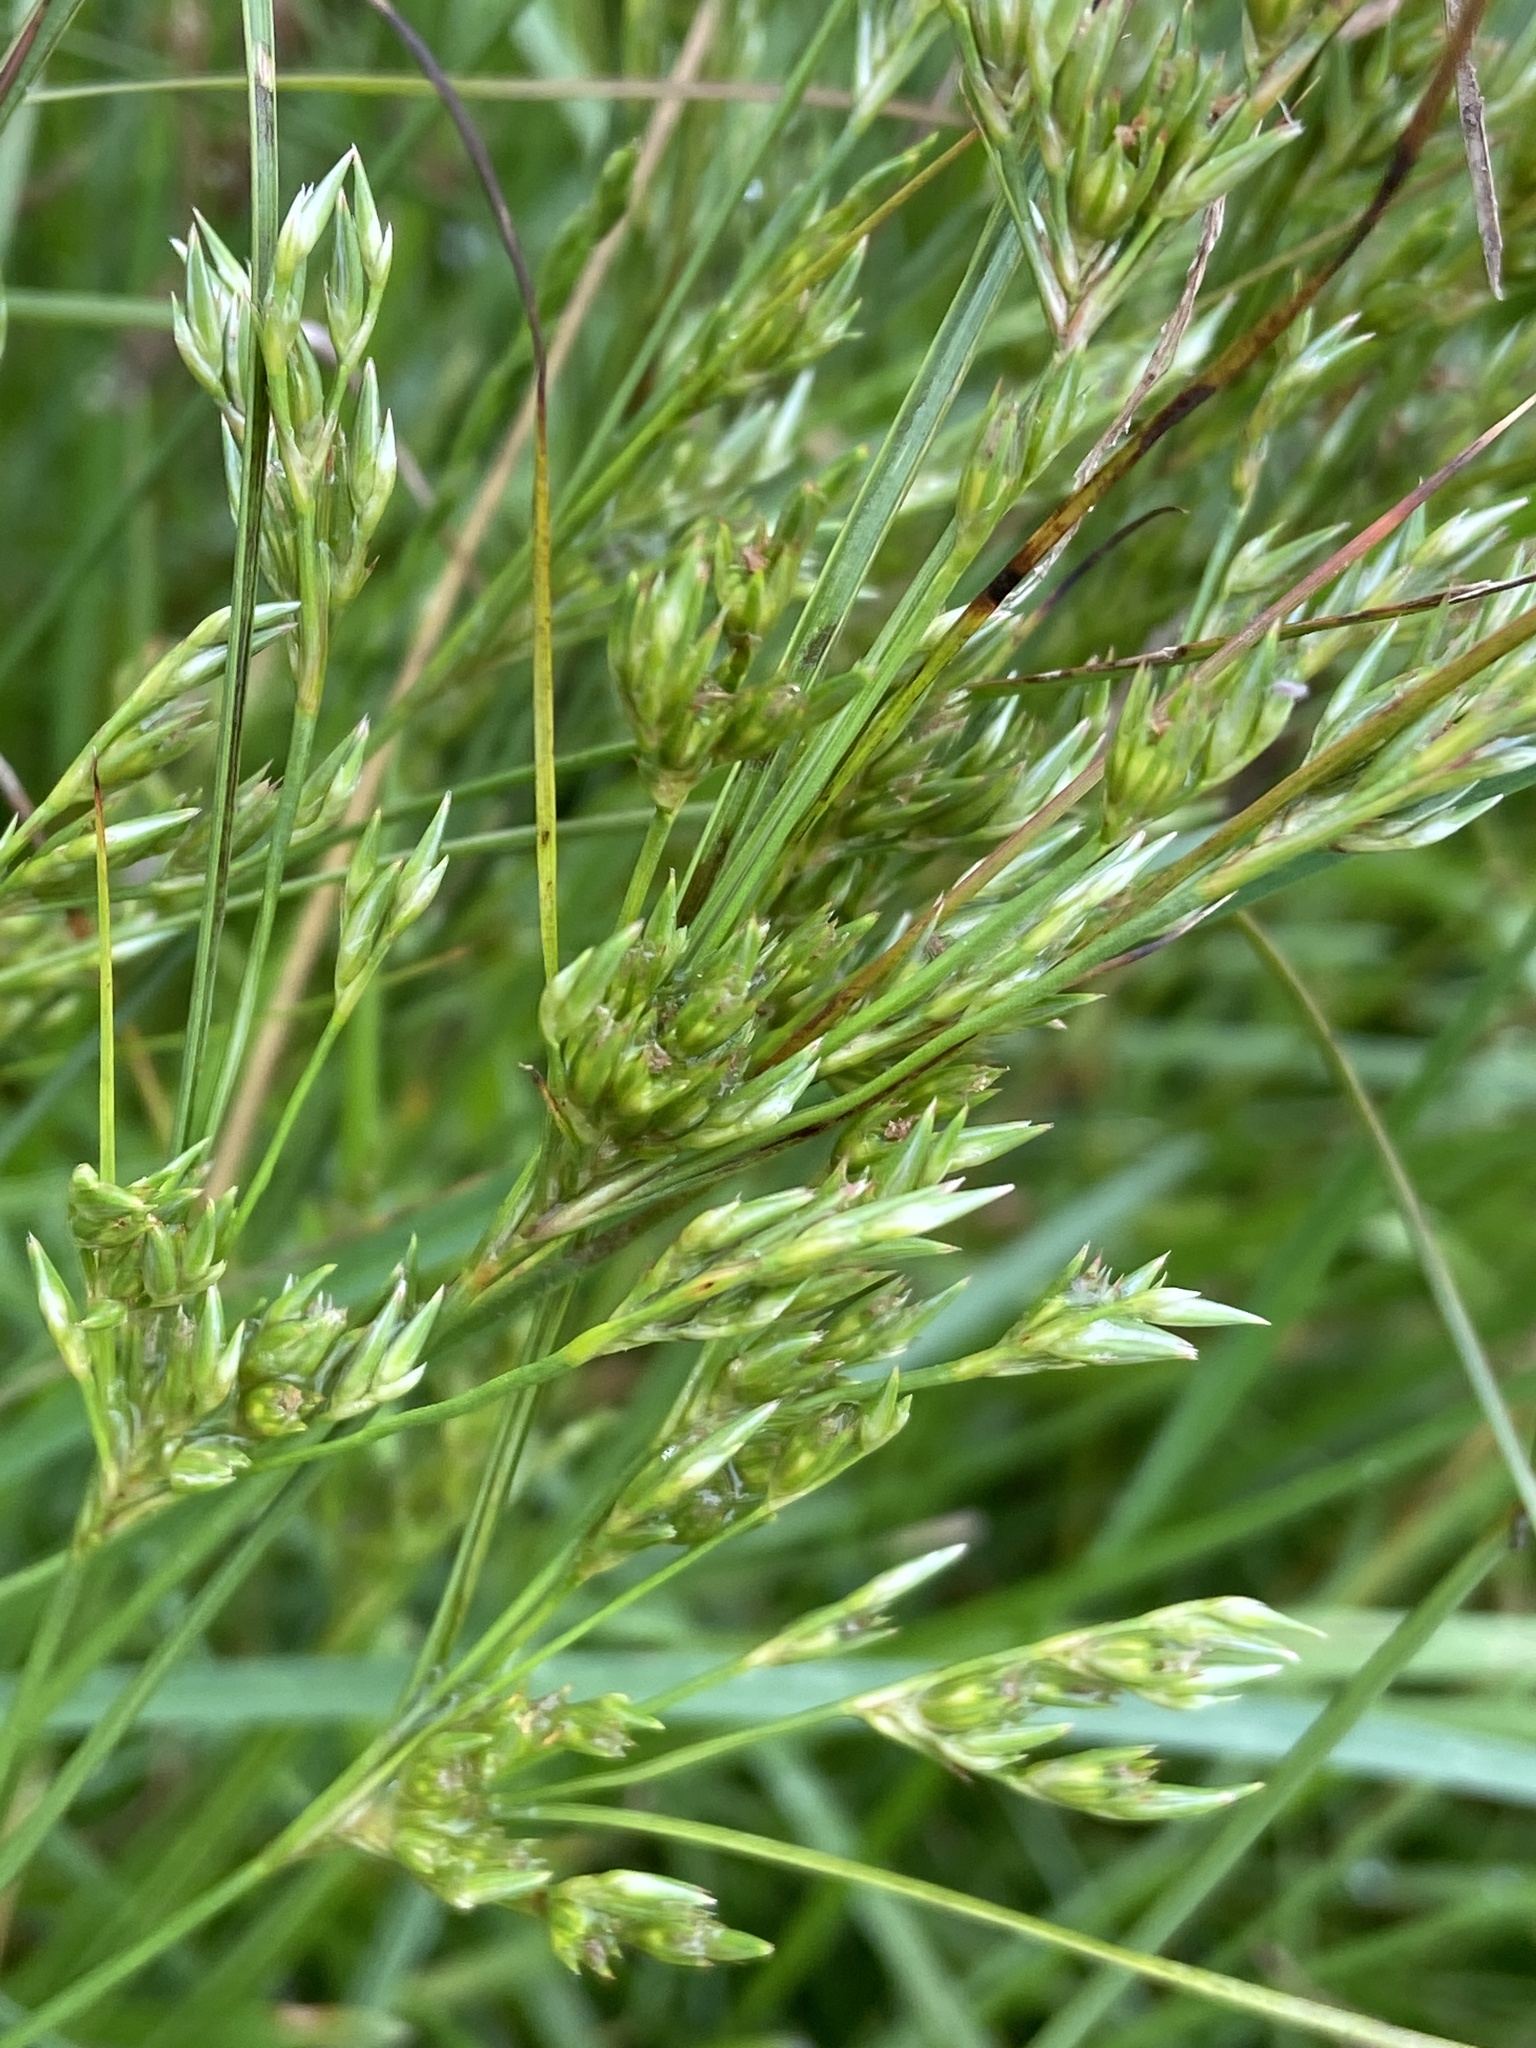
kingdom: Plantae
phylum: Tracheophyta
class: Liliopsida
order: Poales
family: Juncaceae
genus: Juncus
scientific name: Juncus tenuis
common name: Slender rush
